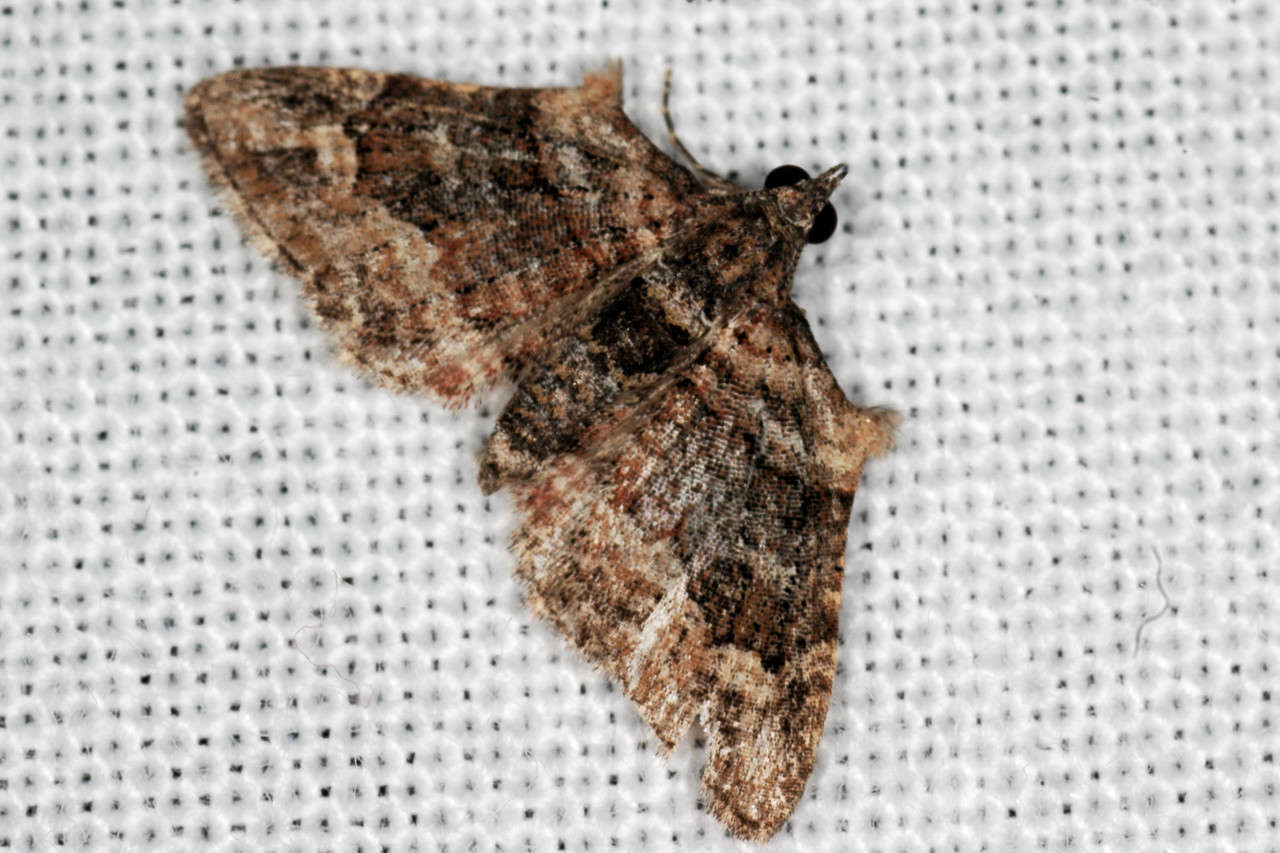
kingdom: Animalia
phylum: Arthropoda
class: Insecta
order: Lepidoptera
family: Geometridae
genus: Phrissogonus
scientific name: Phrissogonus laticostata
